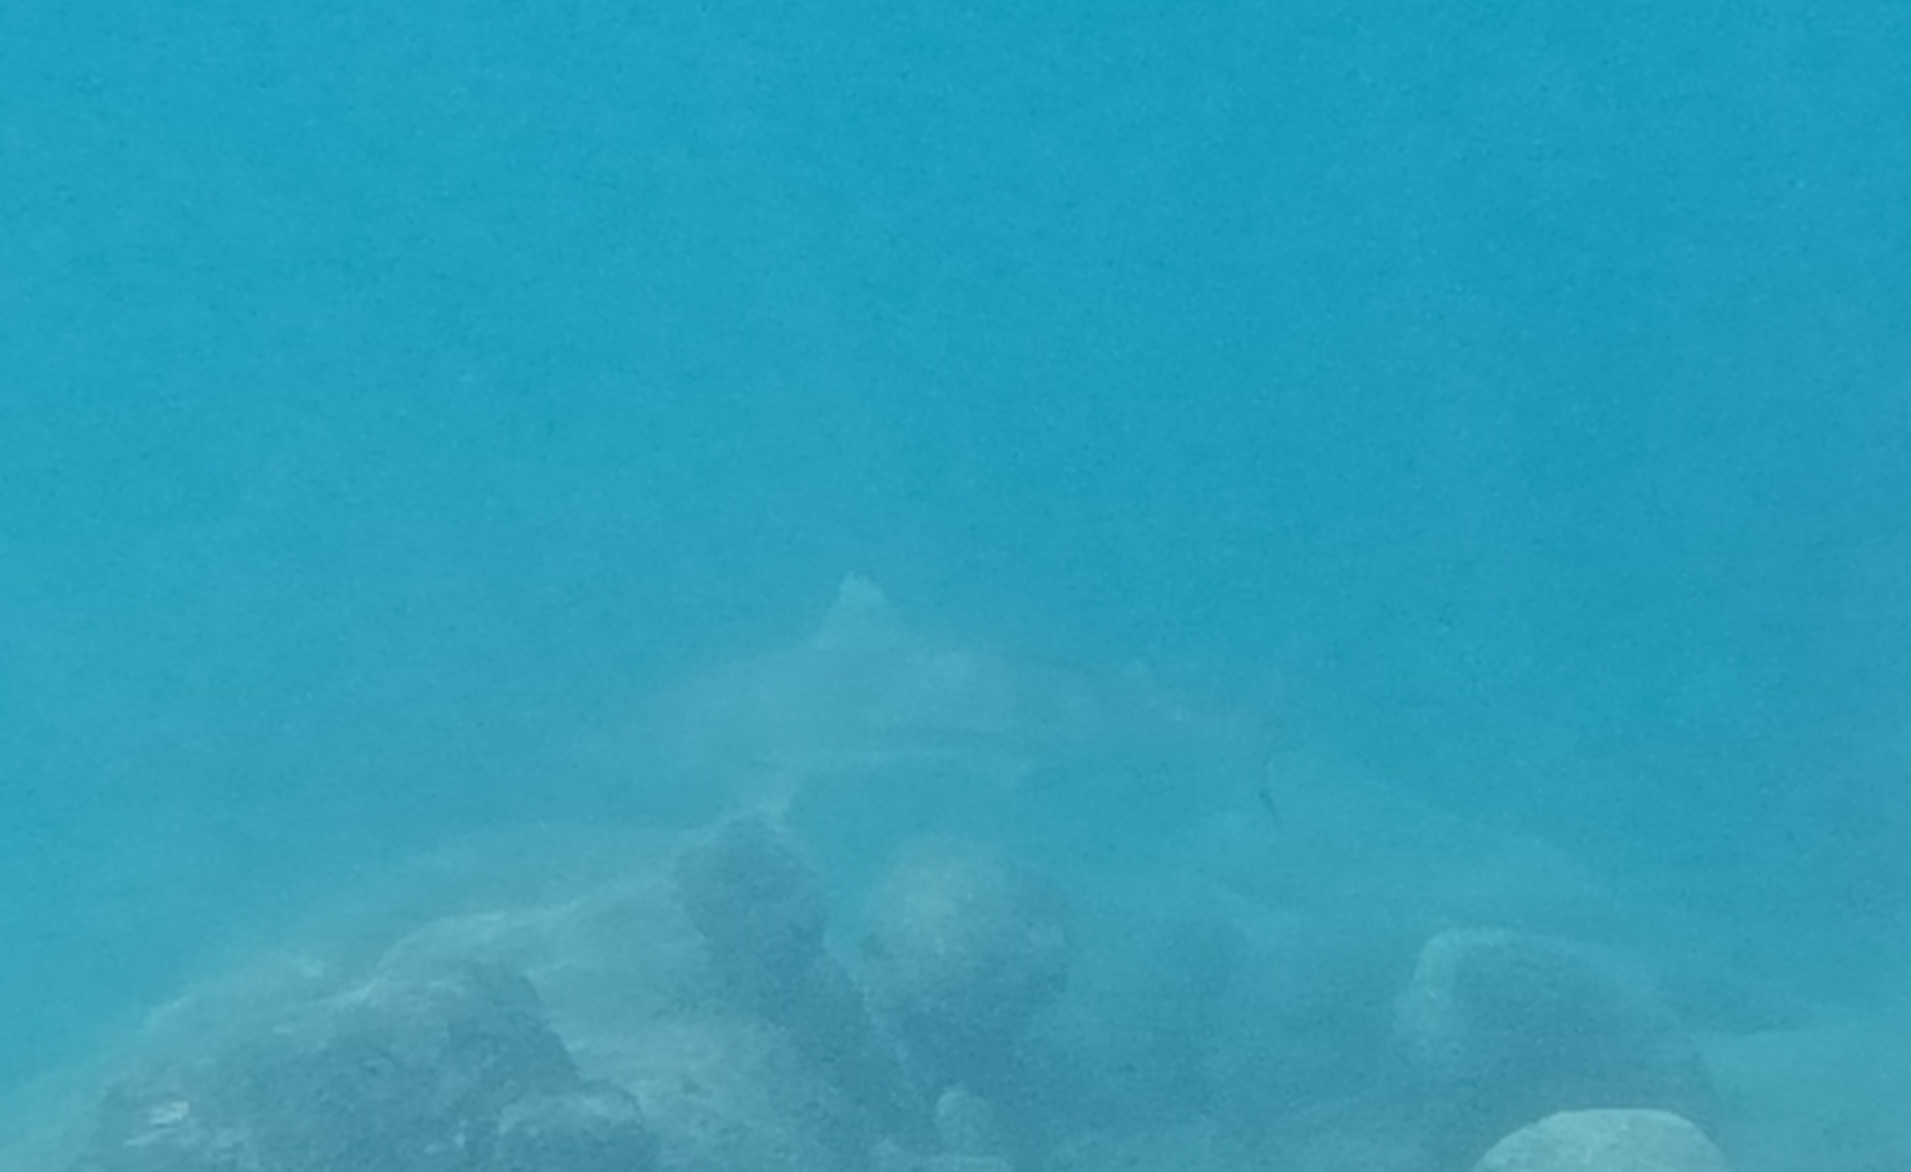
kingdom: Animalia
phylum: Chordata
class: Elasmobranchii
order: Carcharhiniformes
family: Carcharhinidae
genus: Carcharhinus
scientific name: Carcharhinus melanopterus
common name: Blacktip reef shark
